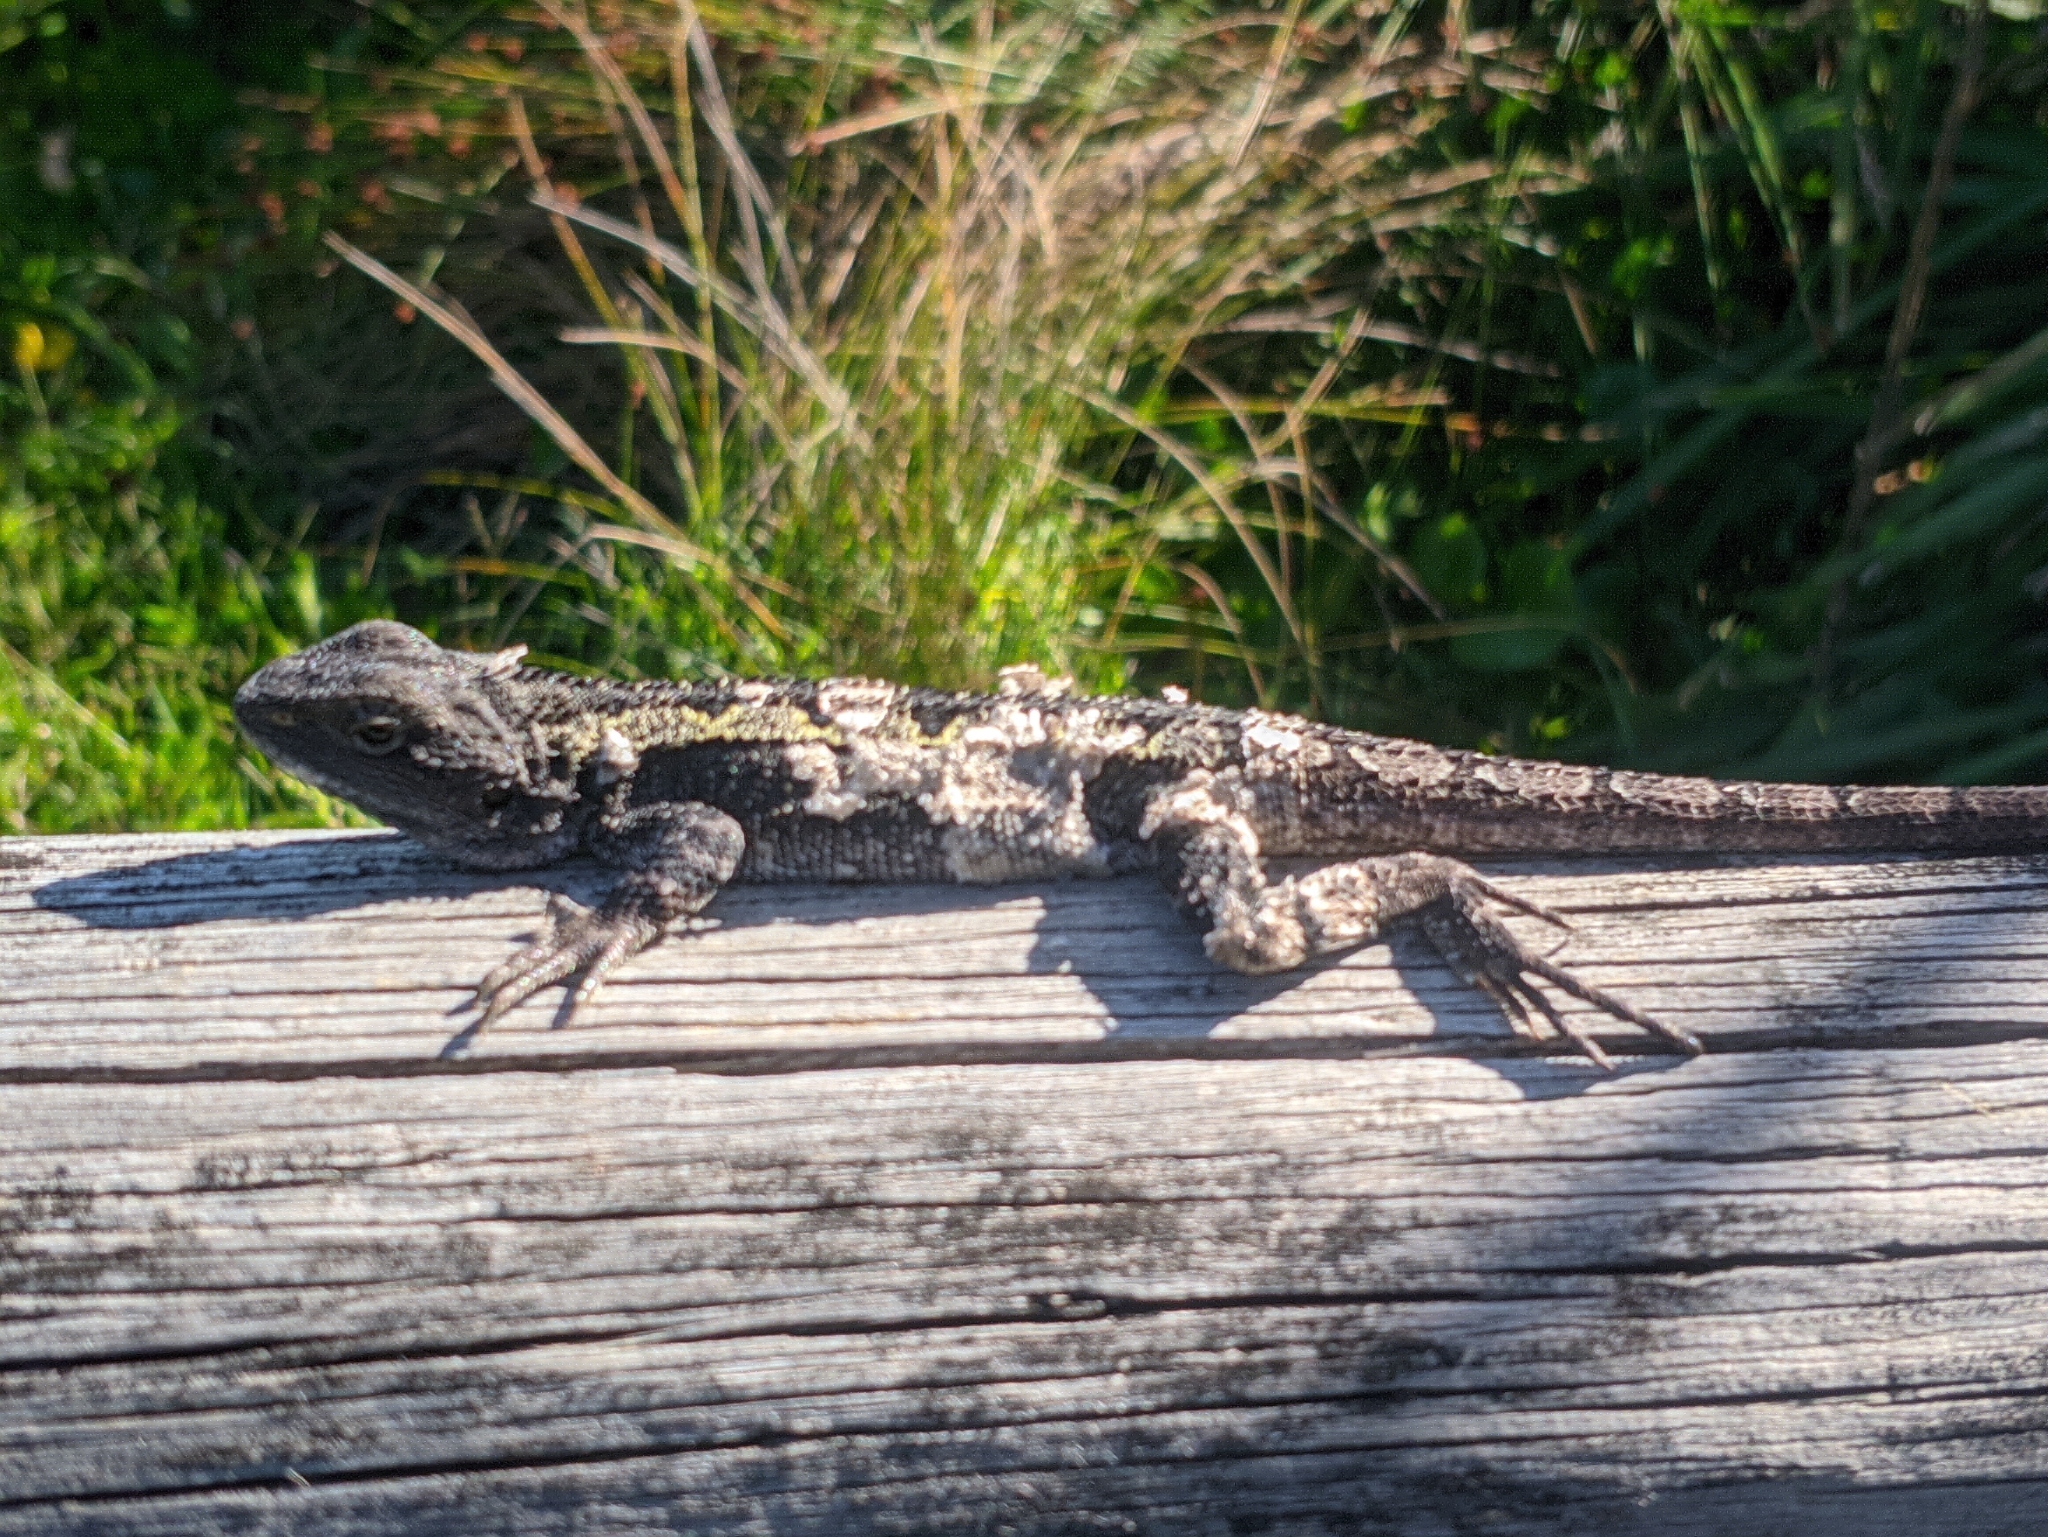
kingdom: Animalia
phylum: Chordata
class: Squamata
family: Agamidae
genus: Amphibolurus
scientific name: Amphibolurus muricatus
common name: Jacky lizard
